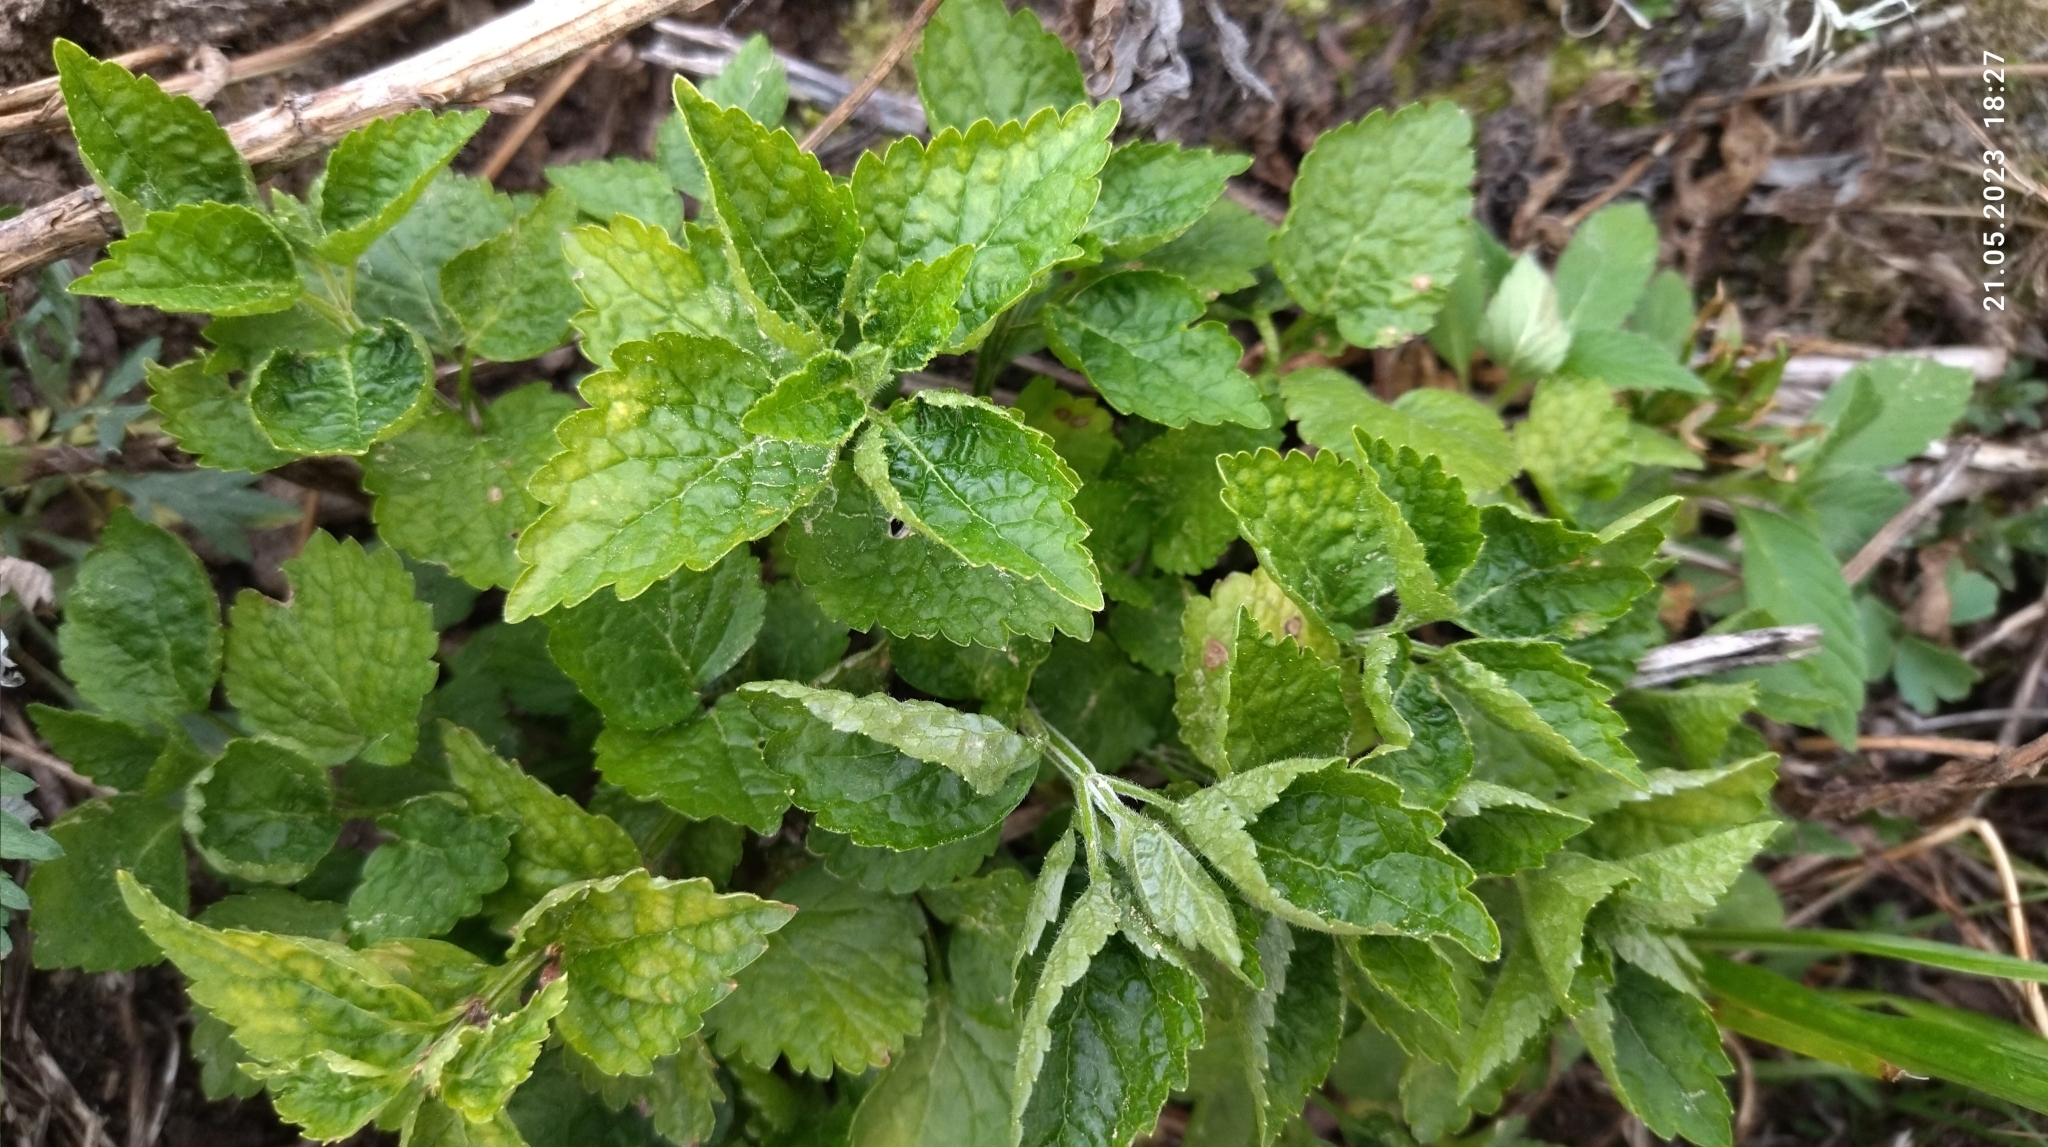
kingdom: Plantae
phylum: Tracheophyta
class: Magnoliopsida
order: Lamiales
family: Lamiaceae
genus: Lamium
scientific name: Lamium galeobdolon
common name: Yellow archangel
